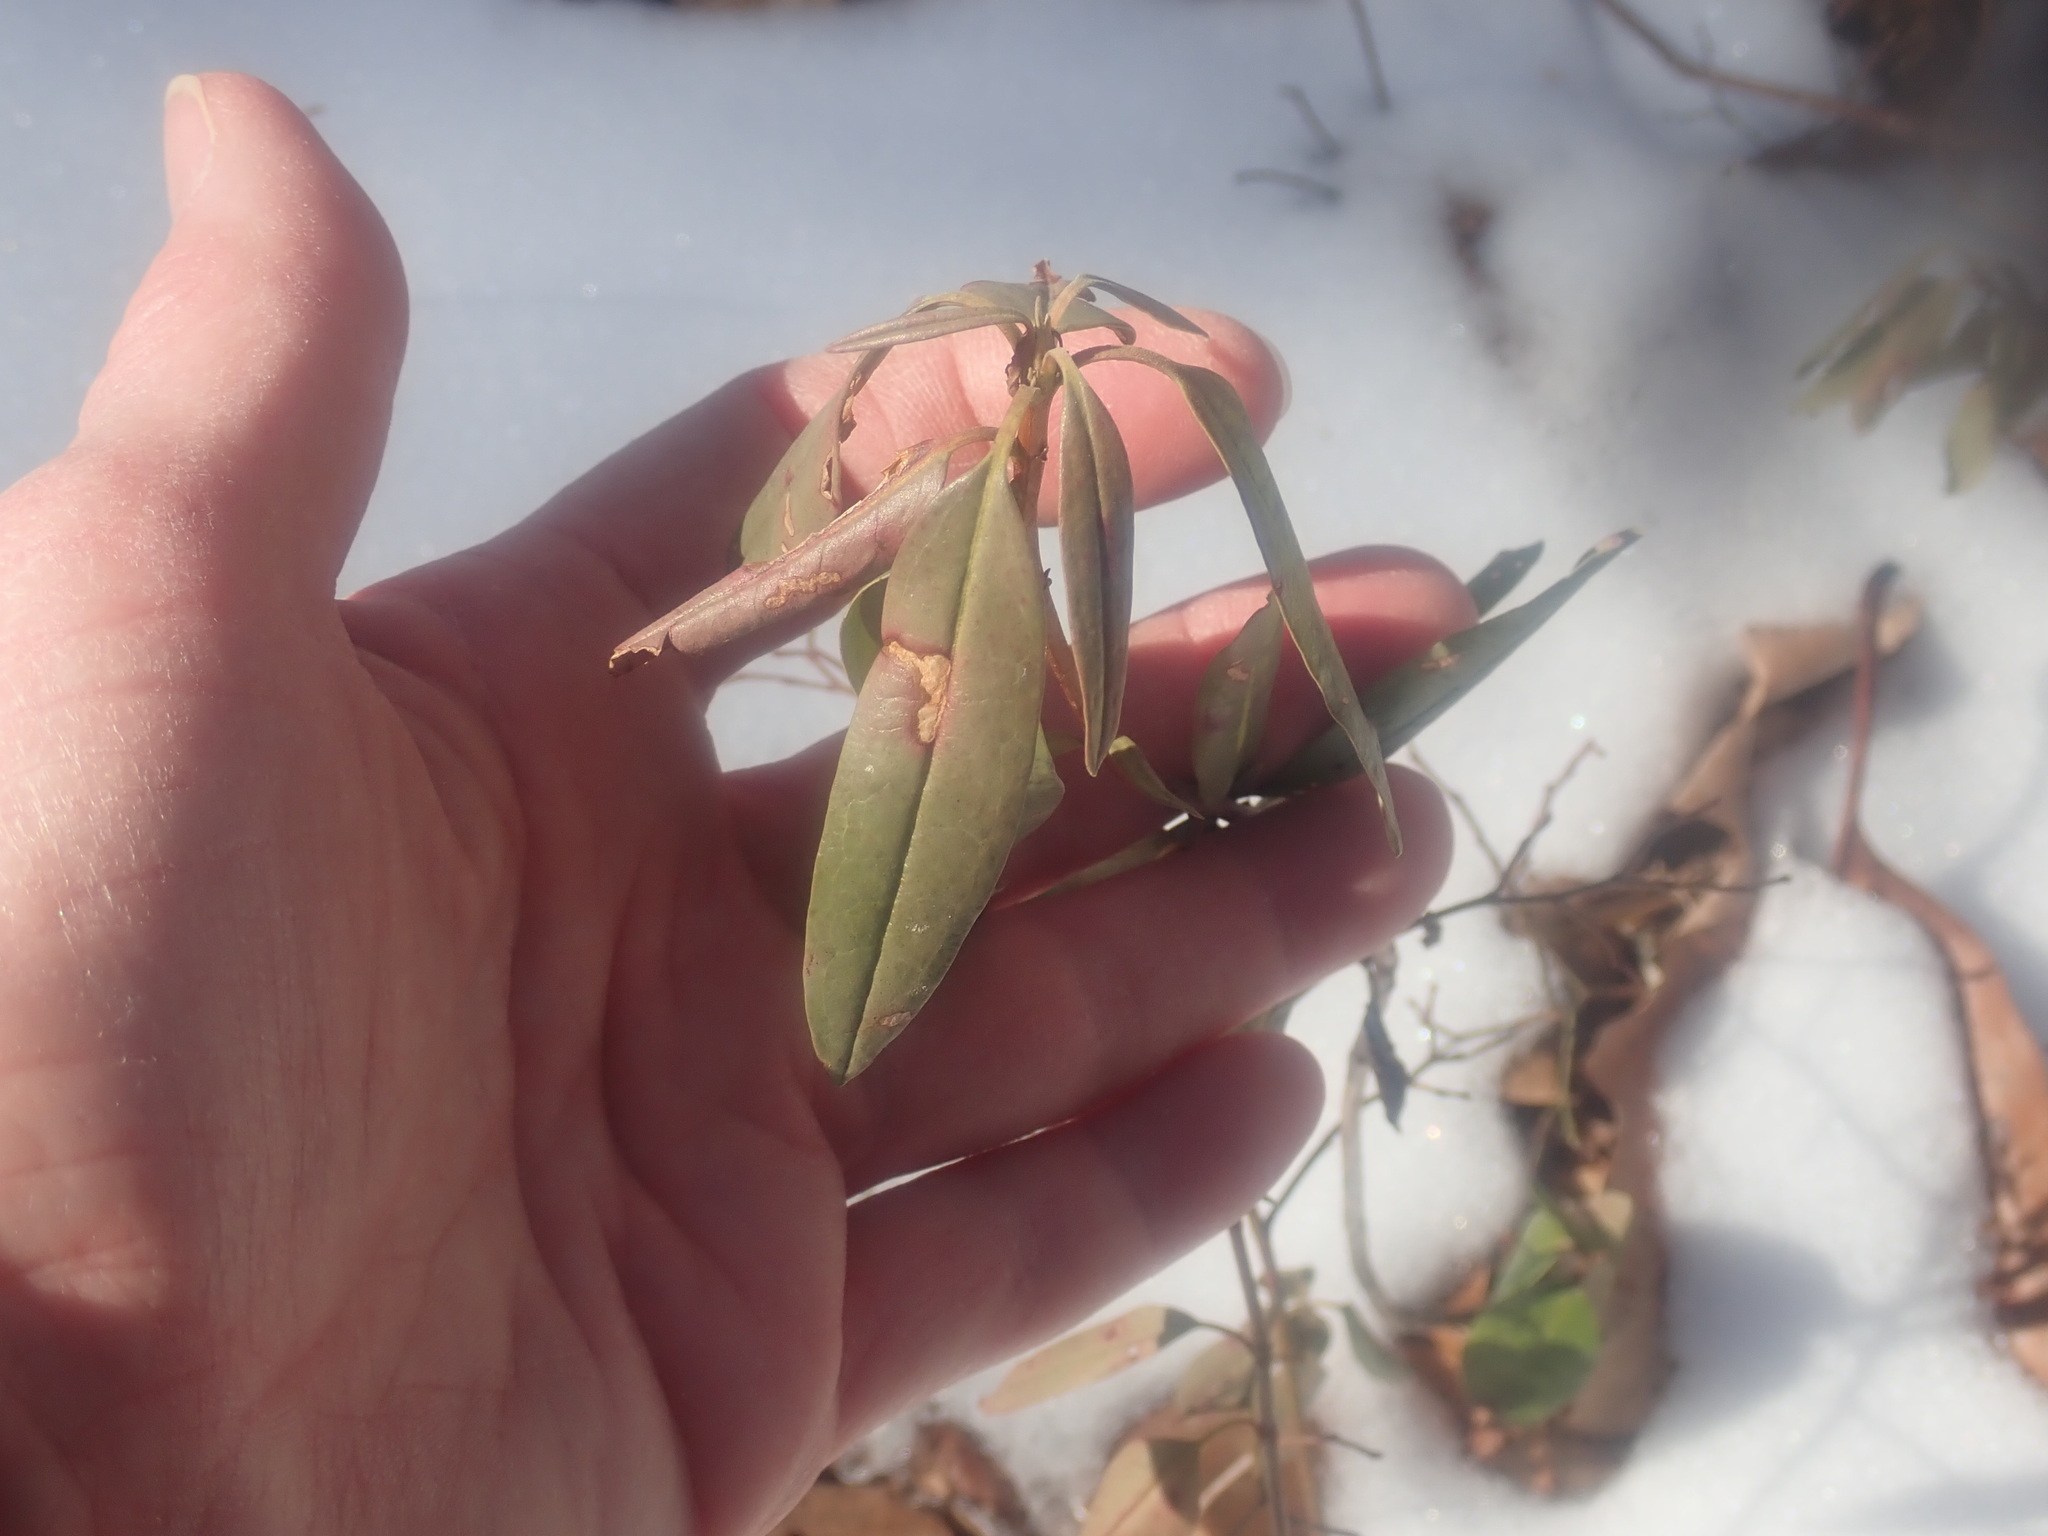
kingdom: Plantae
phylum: Tracheophyta
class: Magnoliopsida
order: Ericales
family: Ericaceae
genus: Kalmia
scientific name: Kalmia angustifolia
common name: Sheep-laurel
